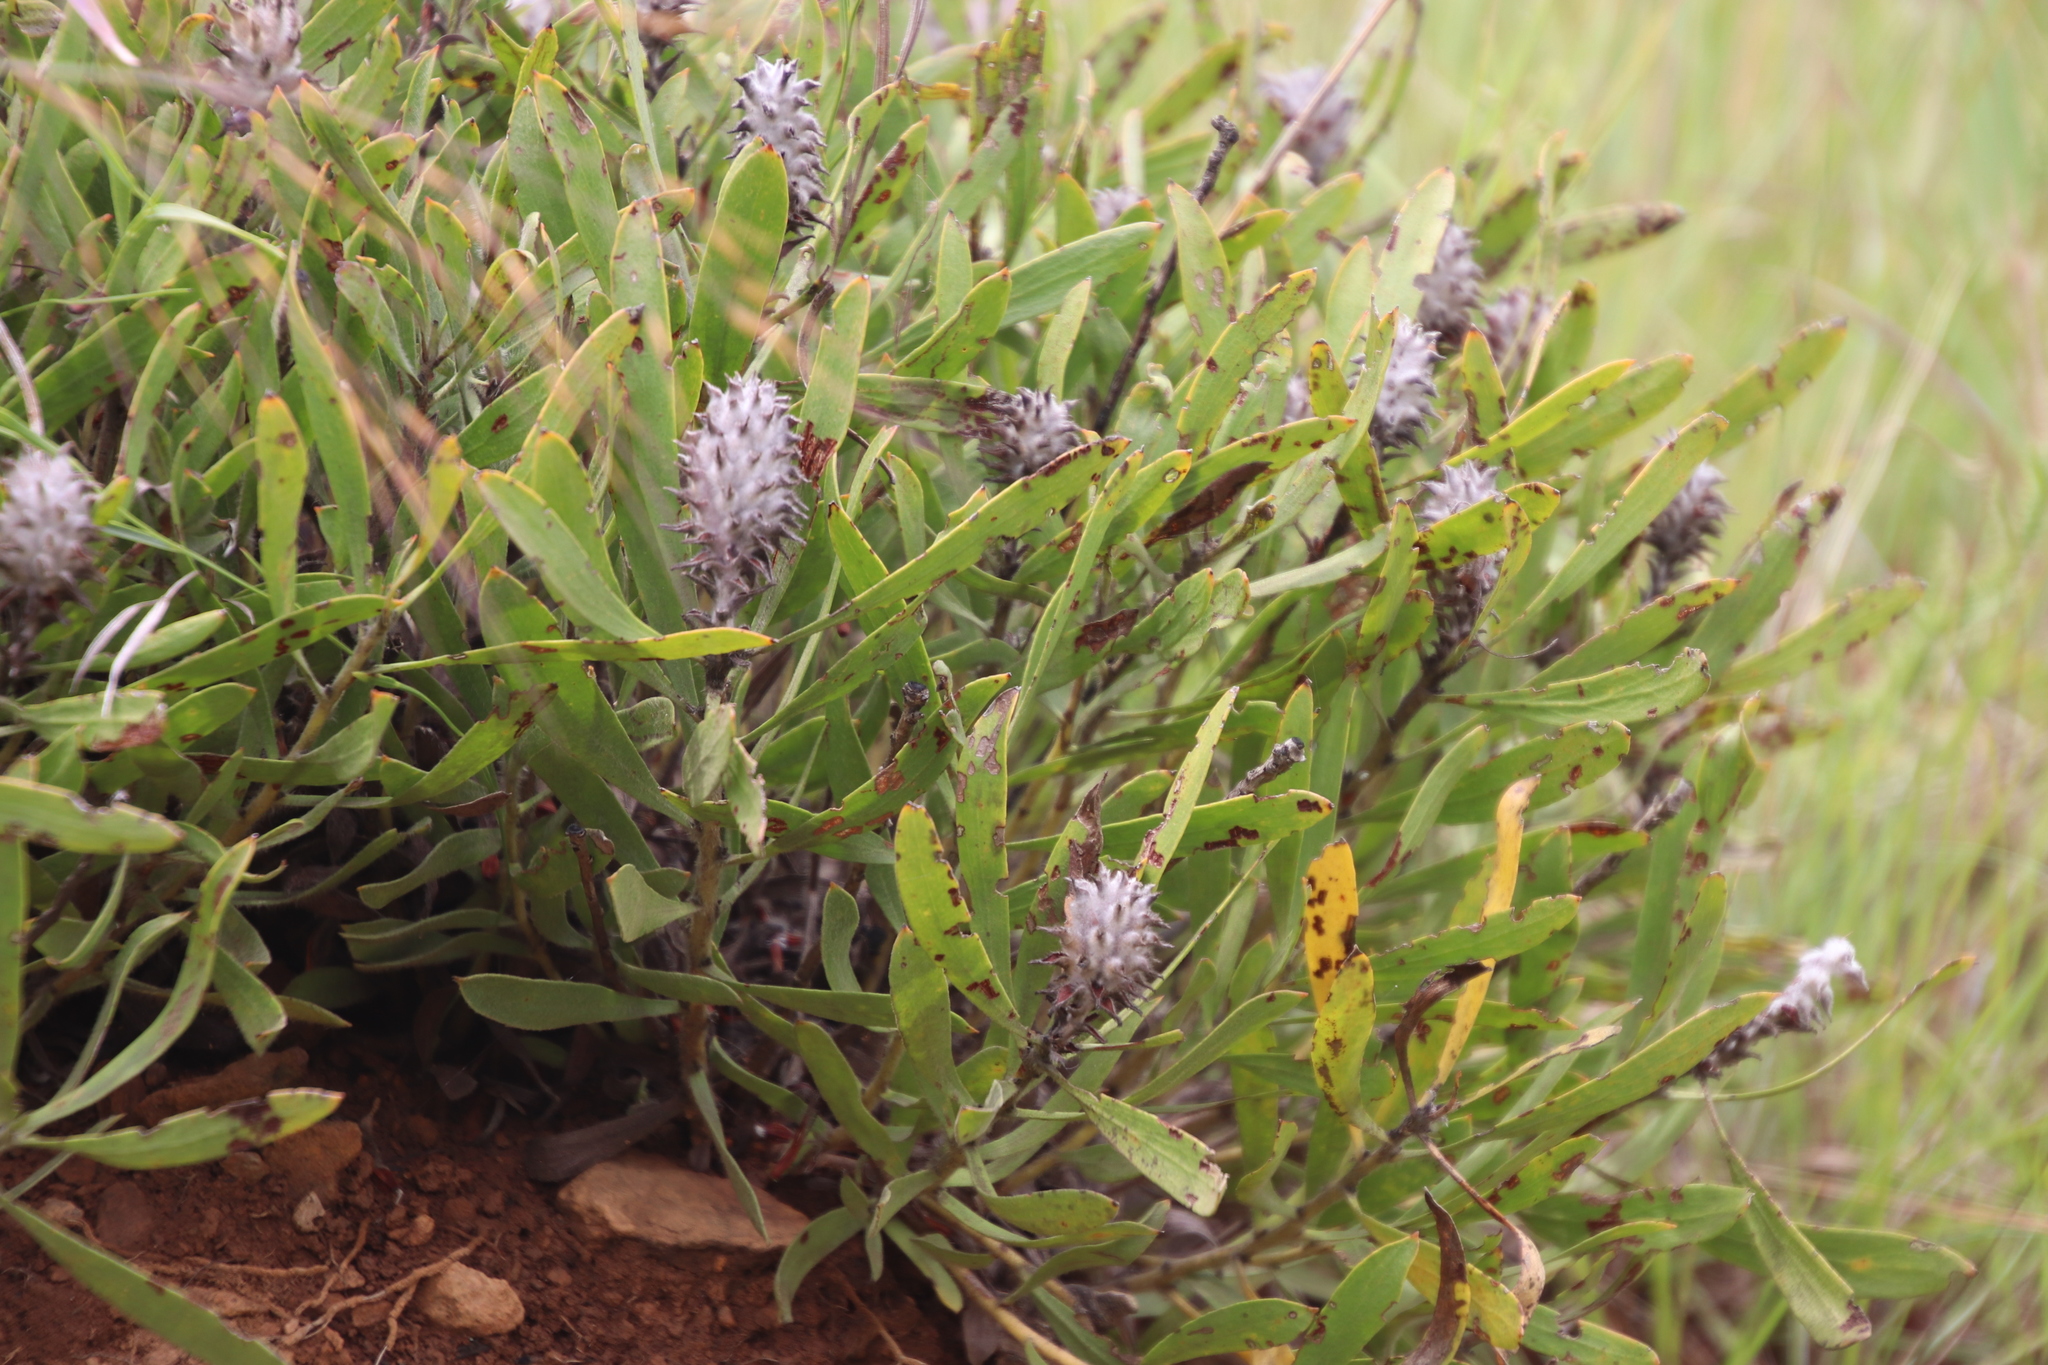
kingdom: Plantae
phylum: Tracheophyta
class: Magnoliopsida
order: Proteales
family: Proteaceae
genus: Leucospermum
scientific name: Leucospermum gerrardii
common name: Soapstone pincushion
